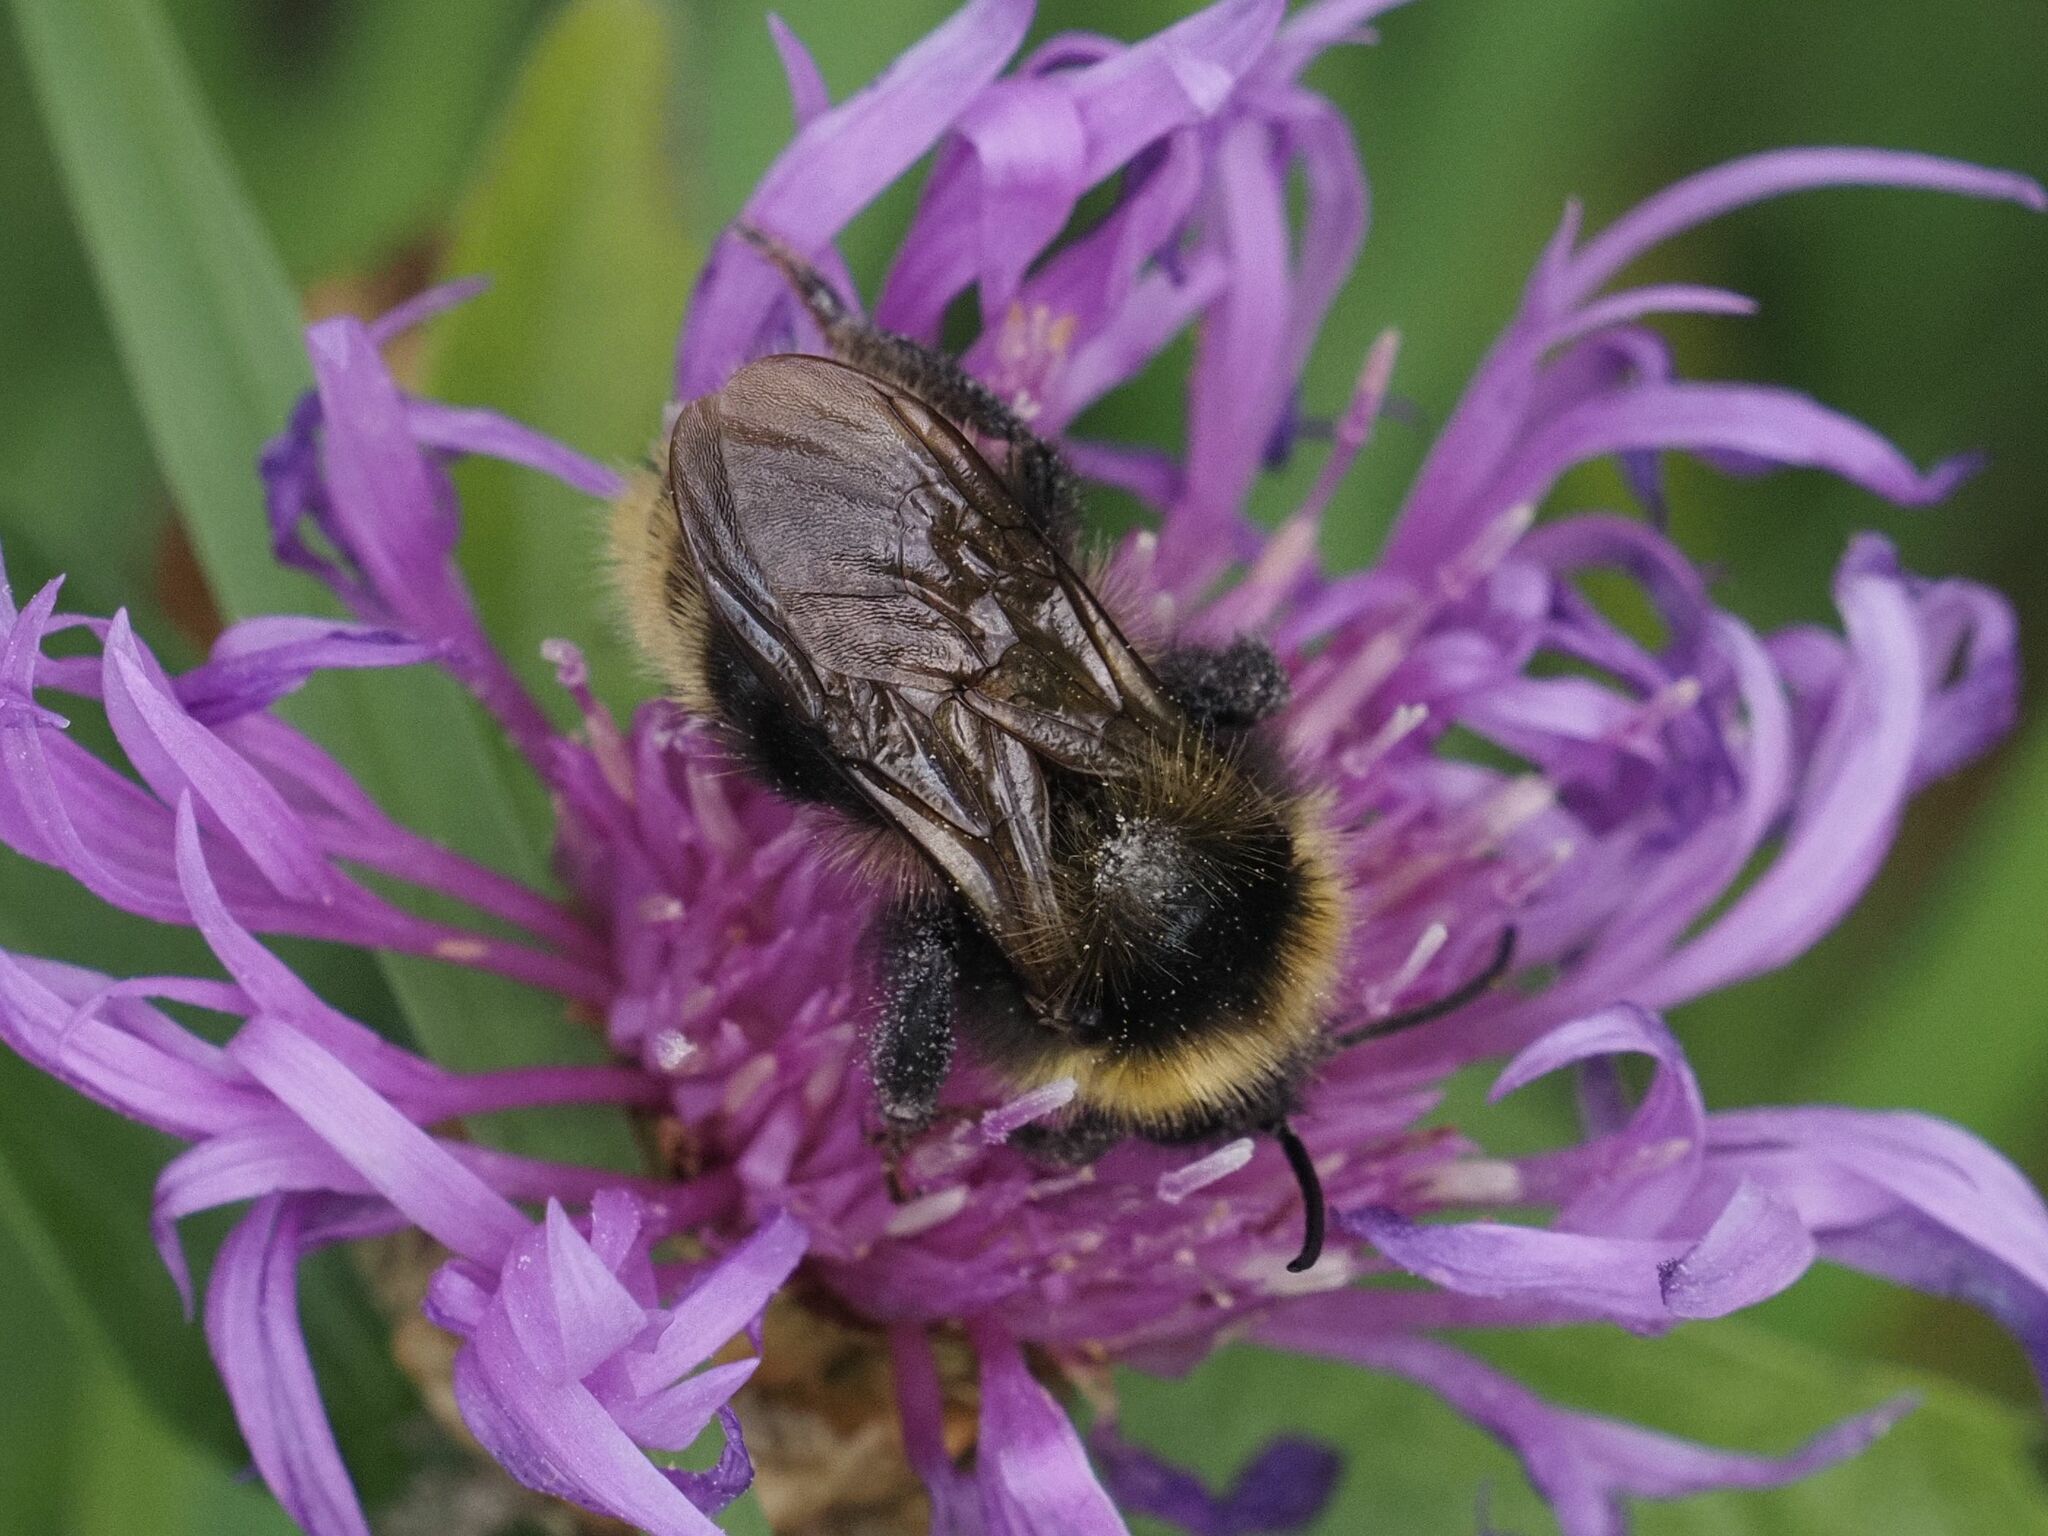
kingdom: Animalia
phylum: Arthropoda
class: Insecta
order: Hymenoptera
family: Apidae
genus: Bombus
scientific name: Bombus campestris
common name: Field cuckoo-bee
